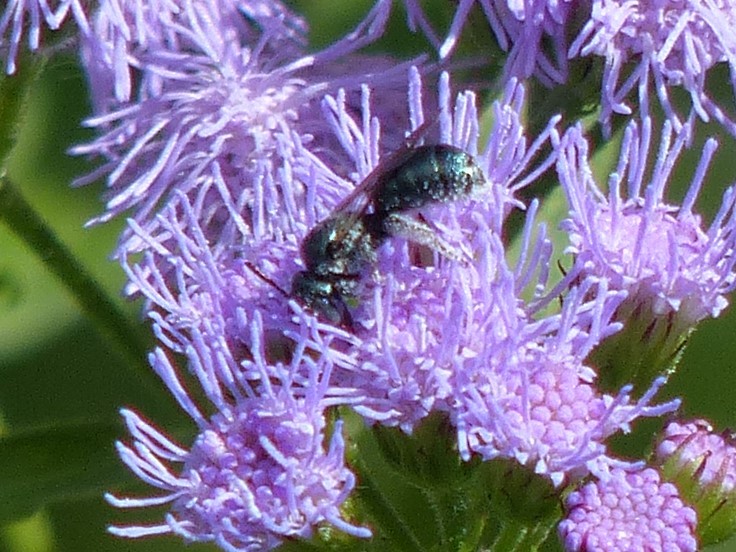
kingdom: Animalia
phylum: Arthropoda
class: Insecta
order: Hymenoptera
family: Apidae
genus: Zadontomerus
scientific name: Zadontomerus
